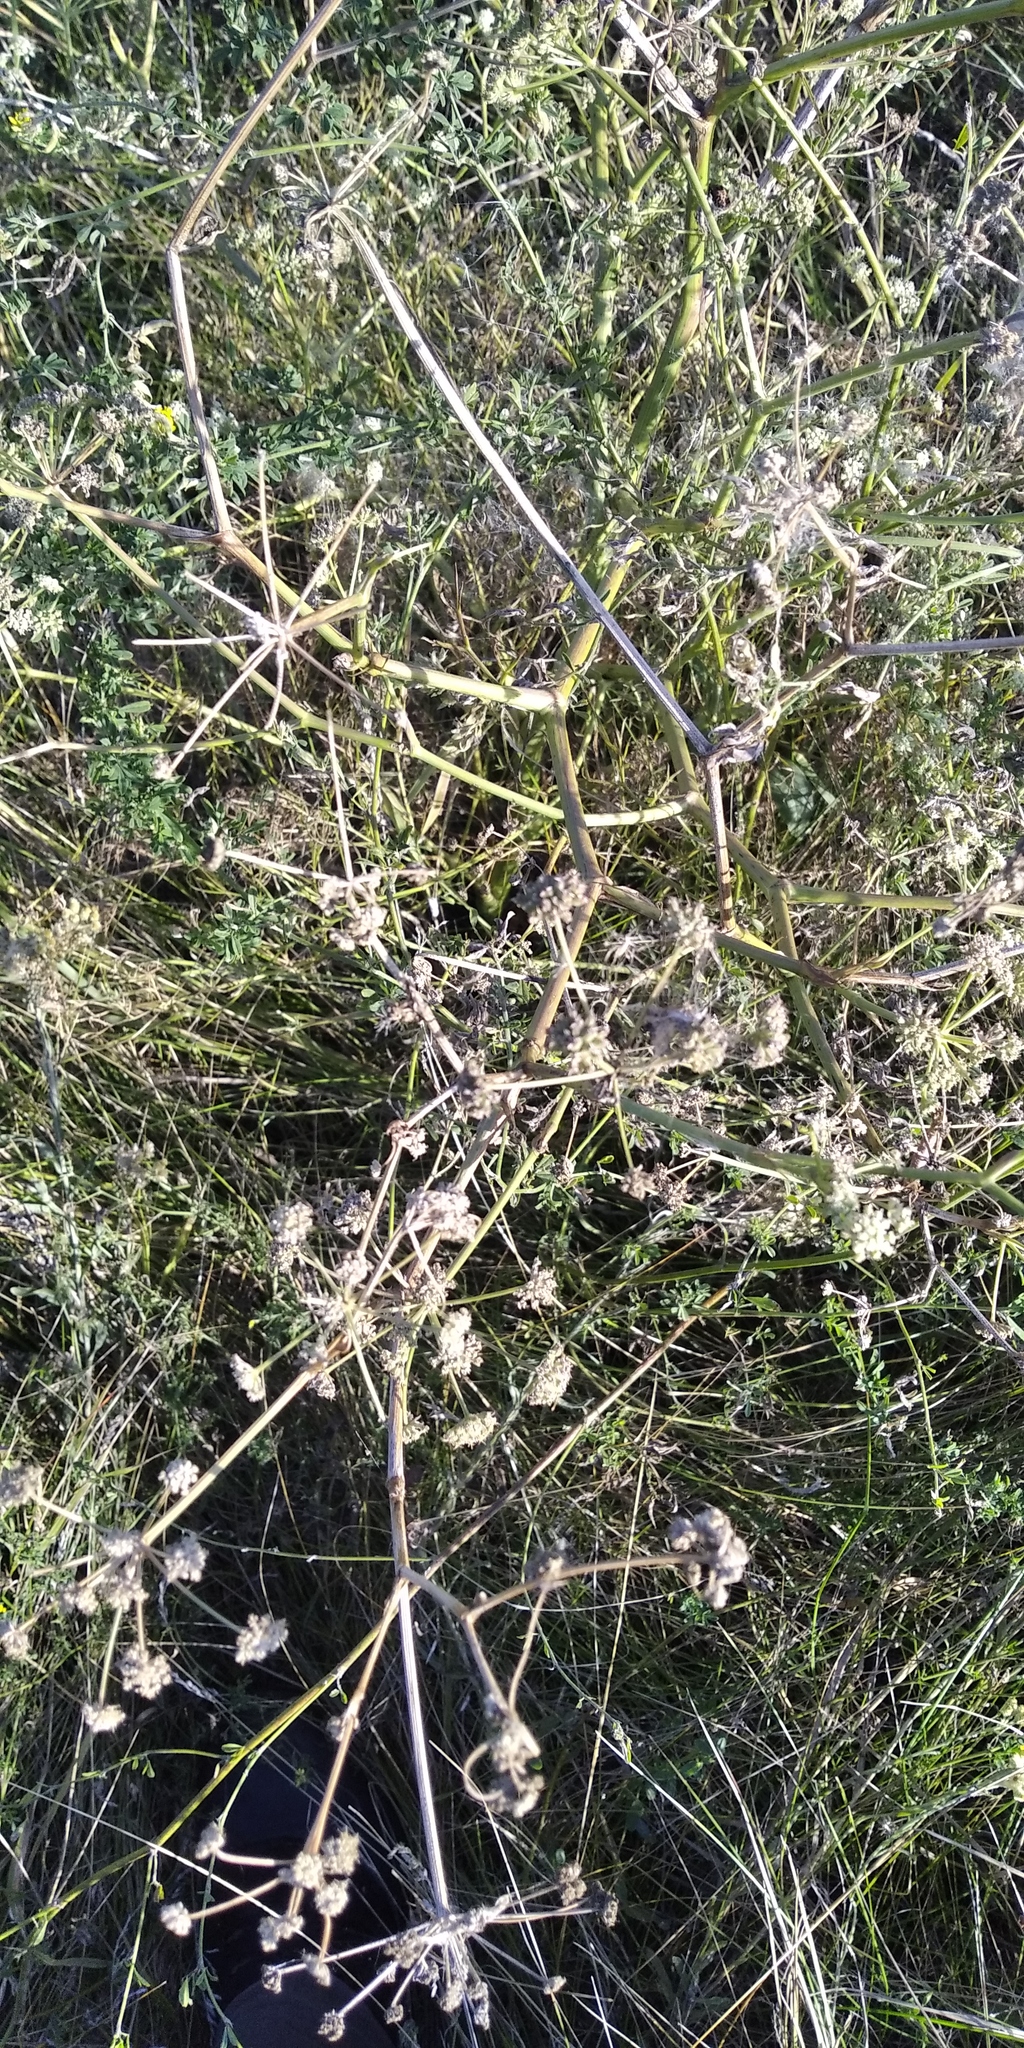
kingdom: Plantae
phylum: Tracheophyta
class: Magnoliopsida
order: Apiales
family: Apiaceae
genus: Seseli
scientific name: Seseli campestre
